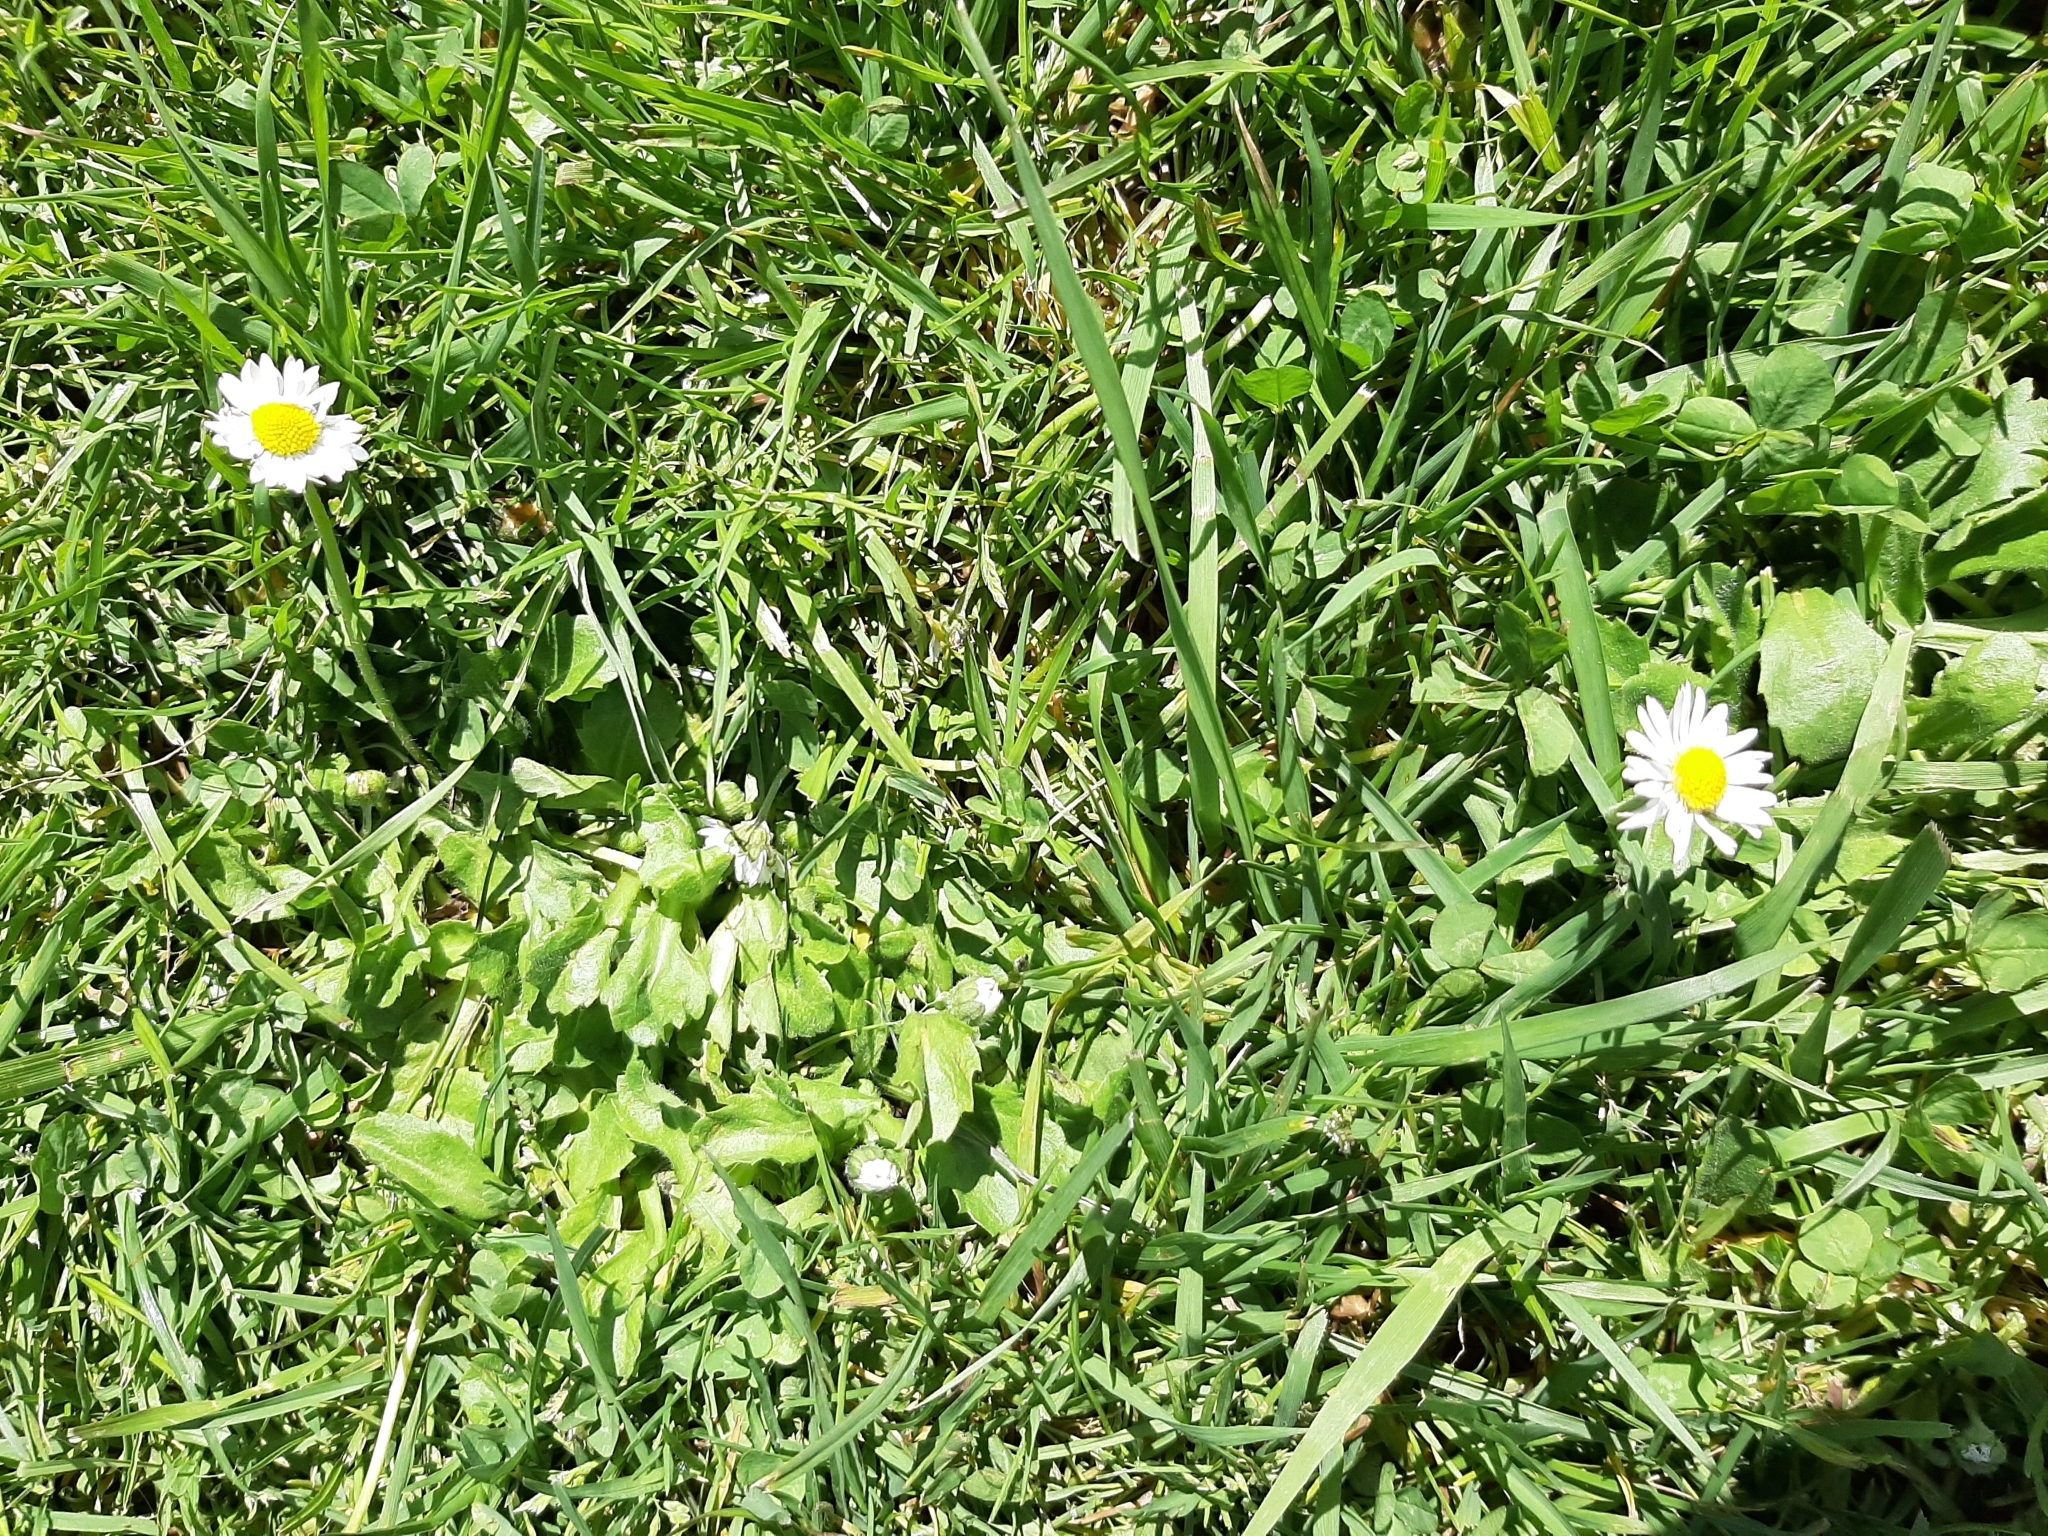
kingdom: Plantae
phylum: Tracheophyta
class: Magnoliopsida
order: Asterales
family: Asteraceae
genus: Bellis
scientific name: Bellis perennis
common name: Lawndaisy
